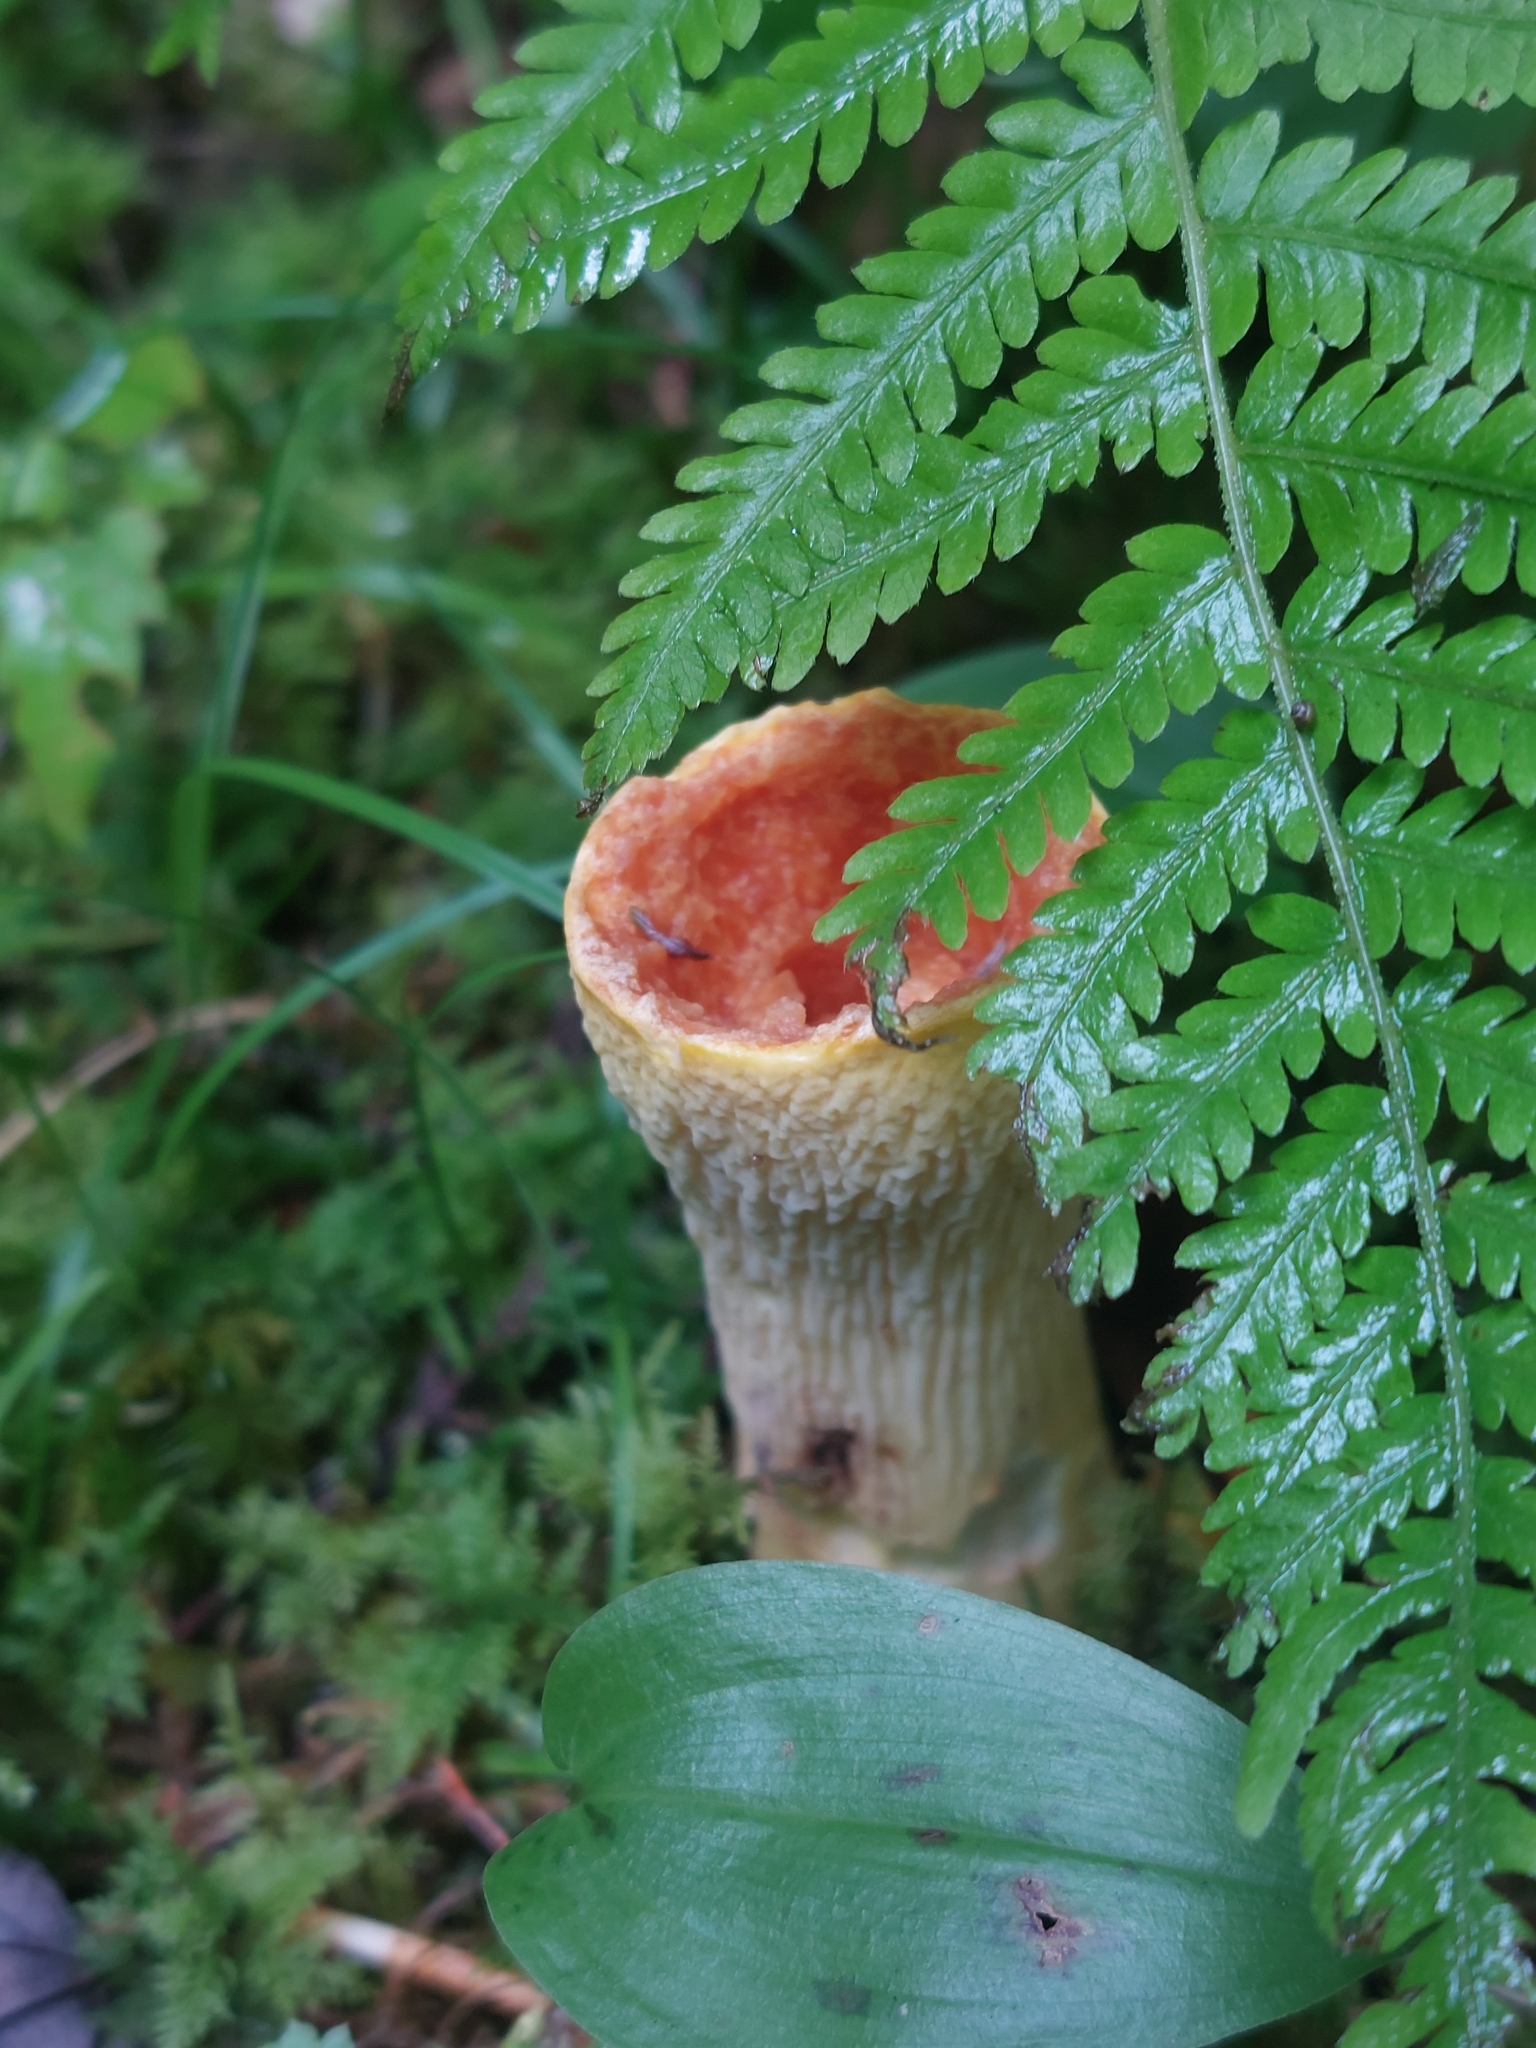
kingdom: Fungi
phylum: Basidiomycota
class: Agaricomycetes
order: Gomphales
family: Gomphaceae
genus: Turbinellus
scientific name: Turbinellus floccosus
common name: Scaly chanterelle
